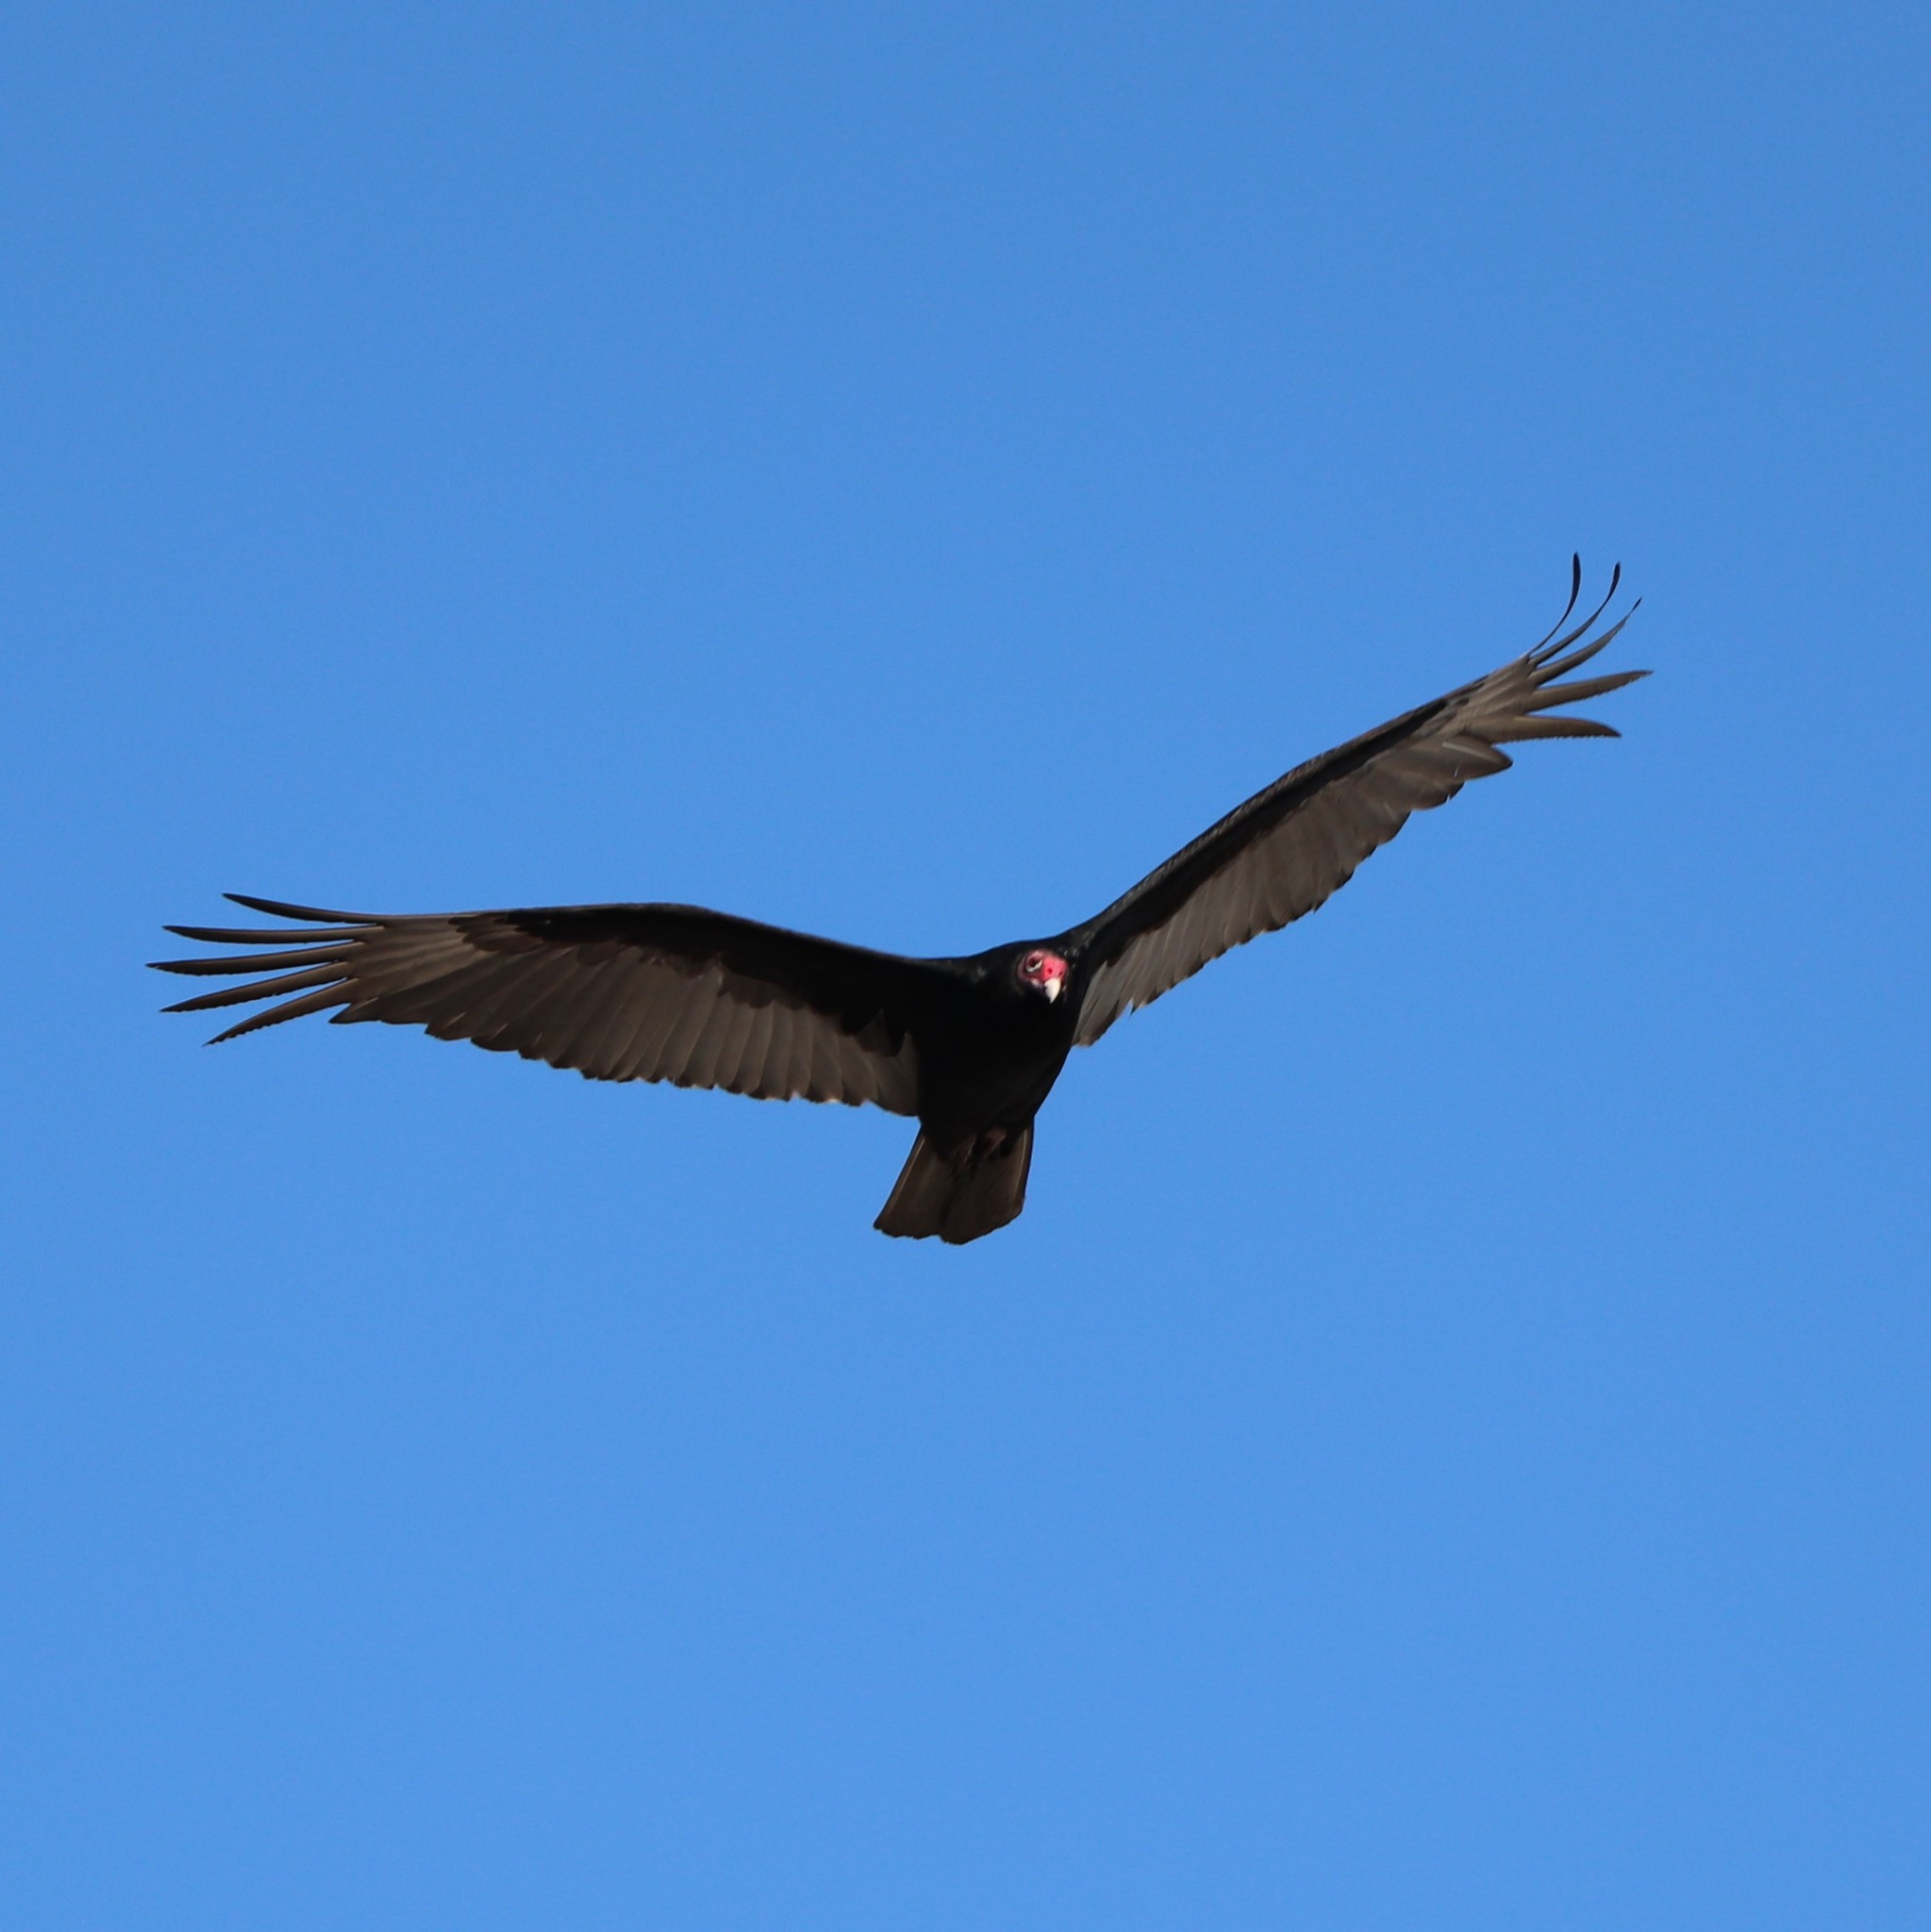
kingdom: Animalia
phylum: Chordata
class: Aves
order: Accipitriformes
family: Cathartidae
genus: Cathartes
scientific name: Cathartes aura
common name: Turkey vulture
